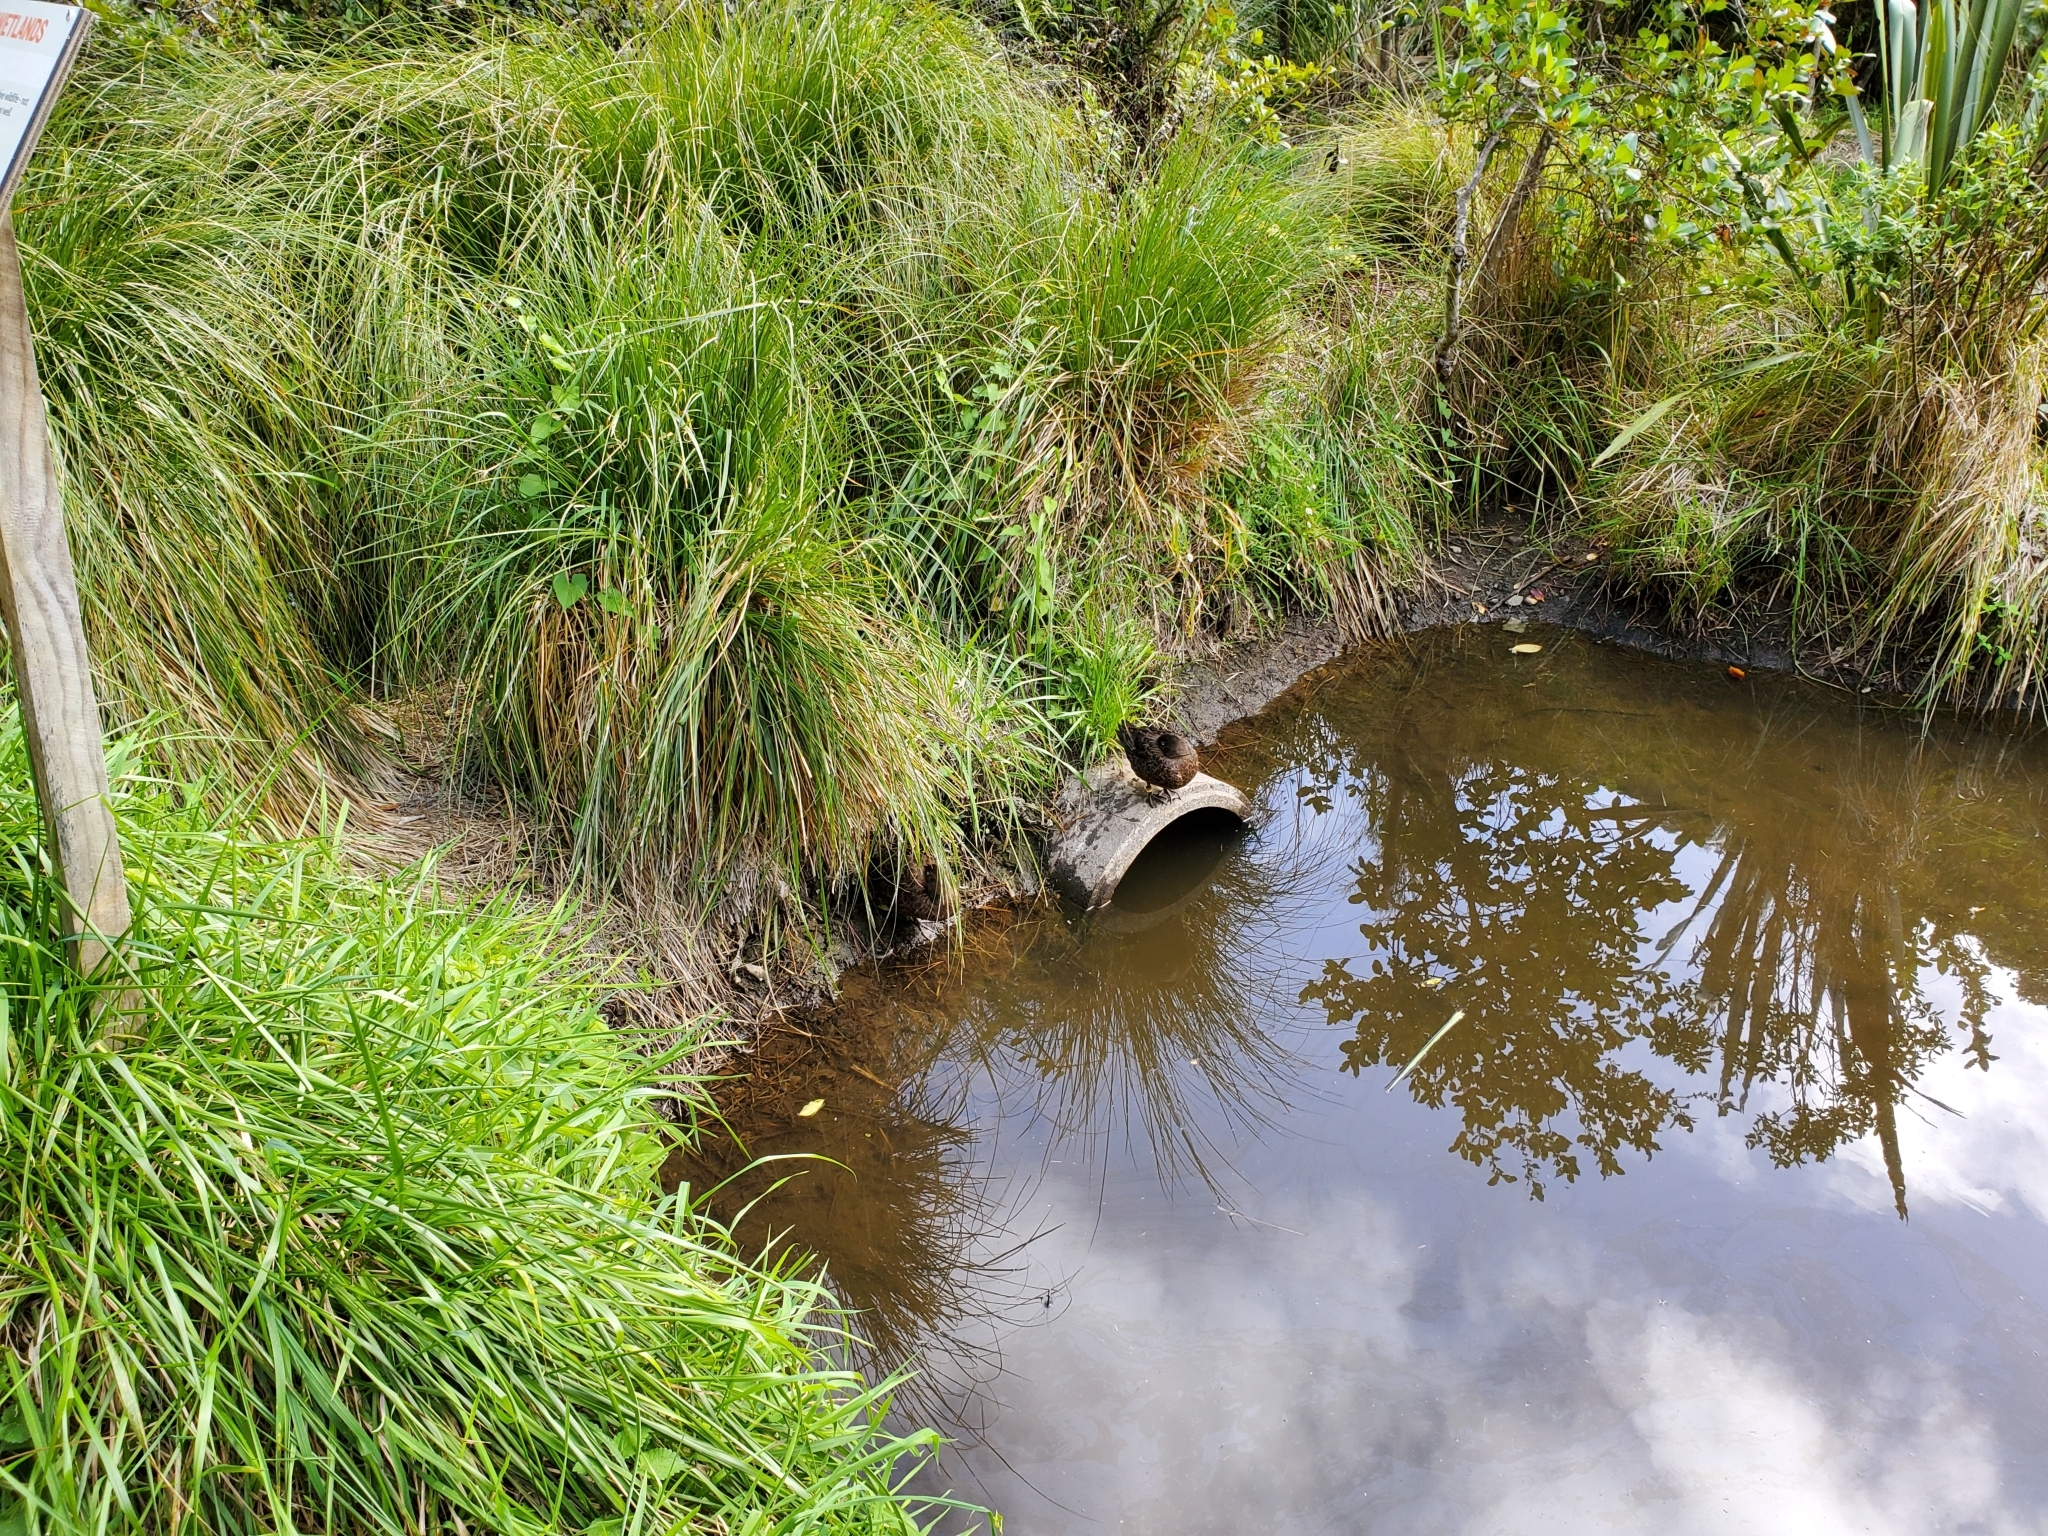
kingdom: Animalia
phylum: Chordata
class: Aves
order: Anseriformes
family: Anatidae
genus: Anas
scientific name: Anas chlorotis
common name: Brown teal
